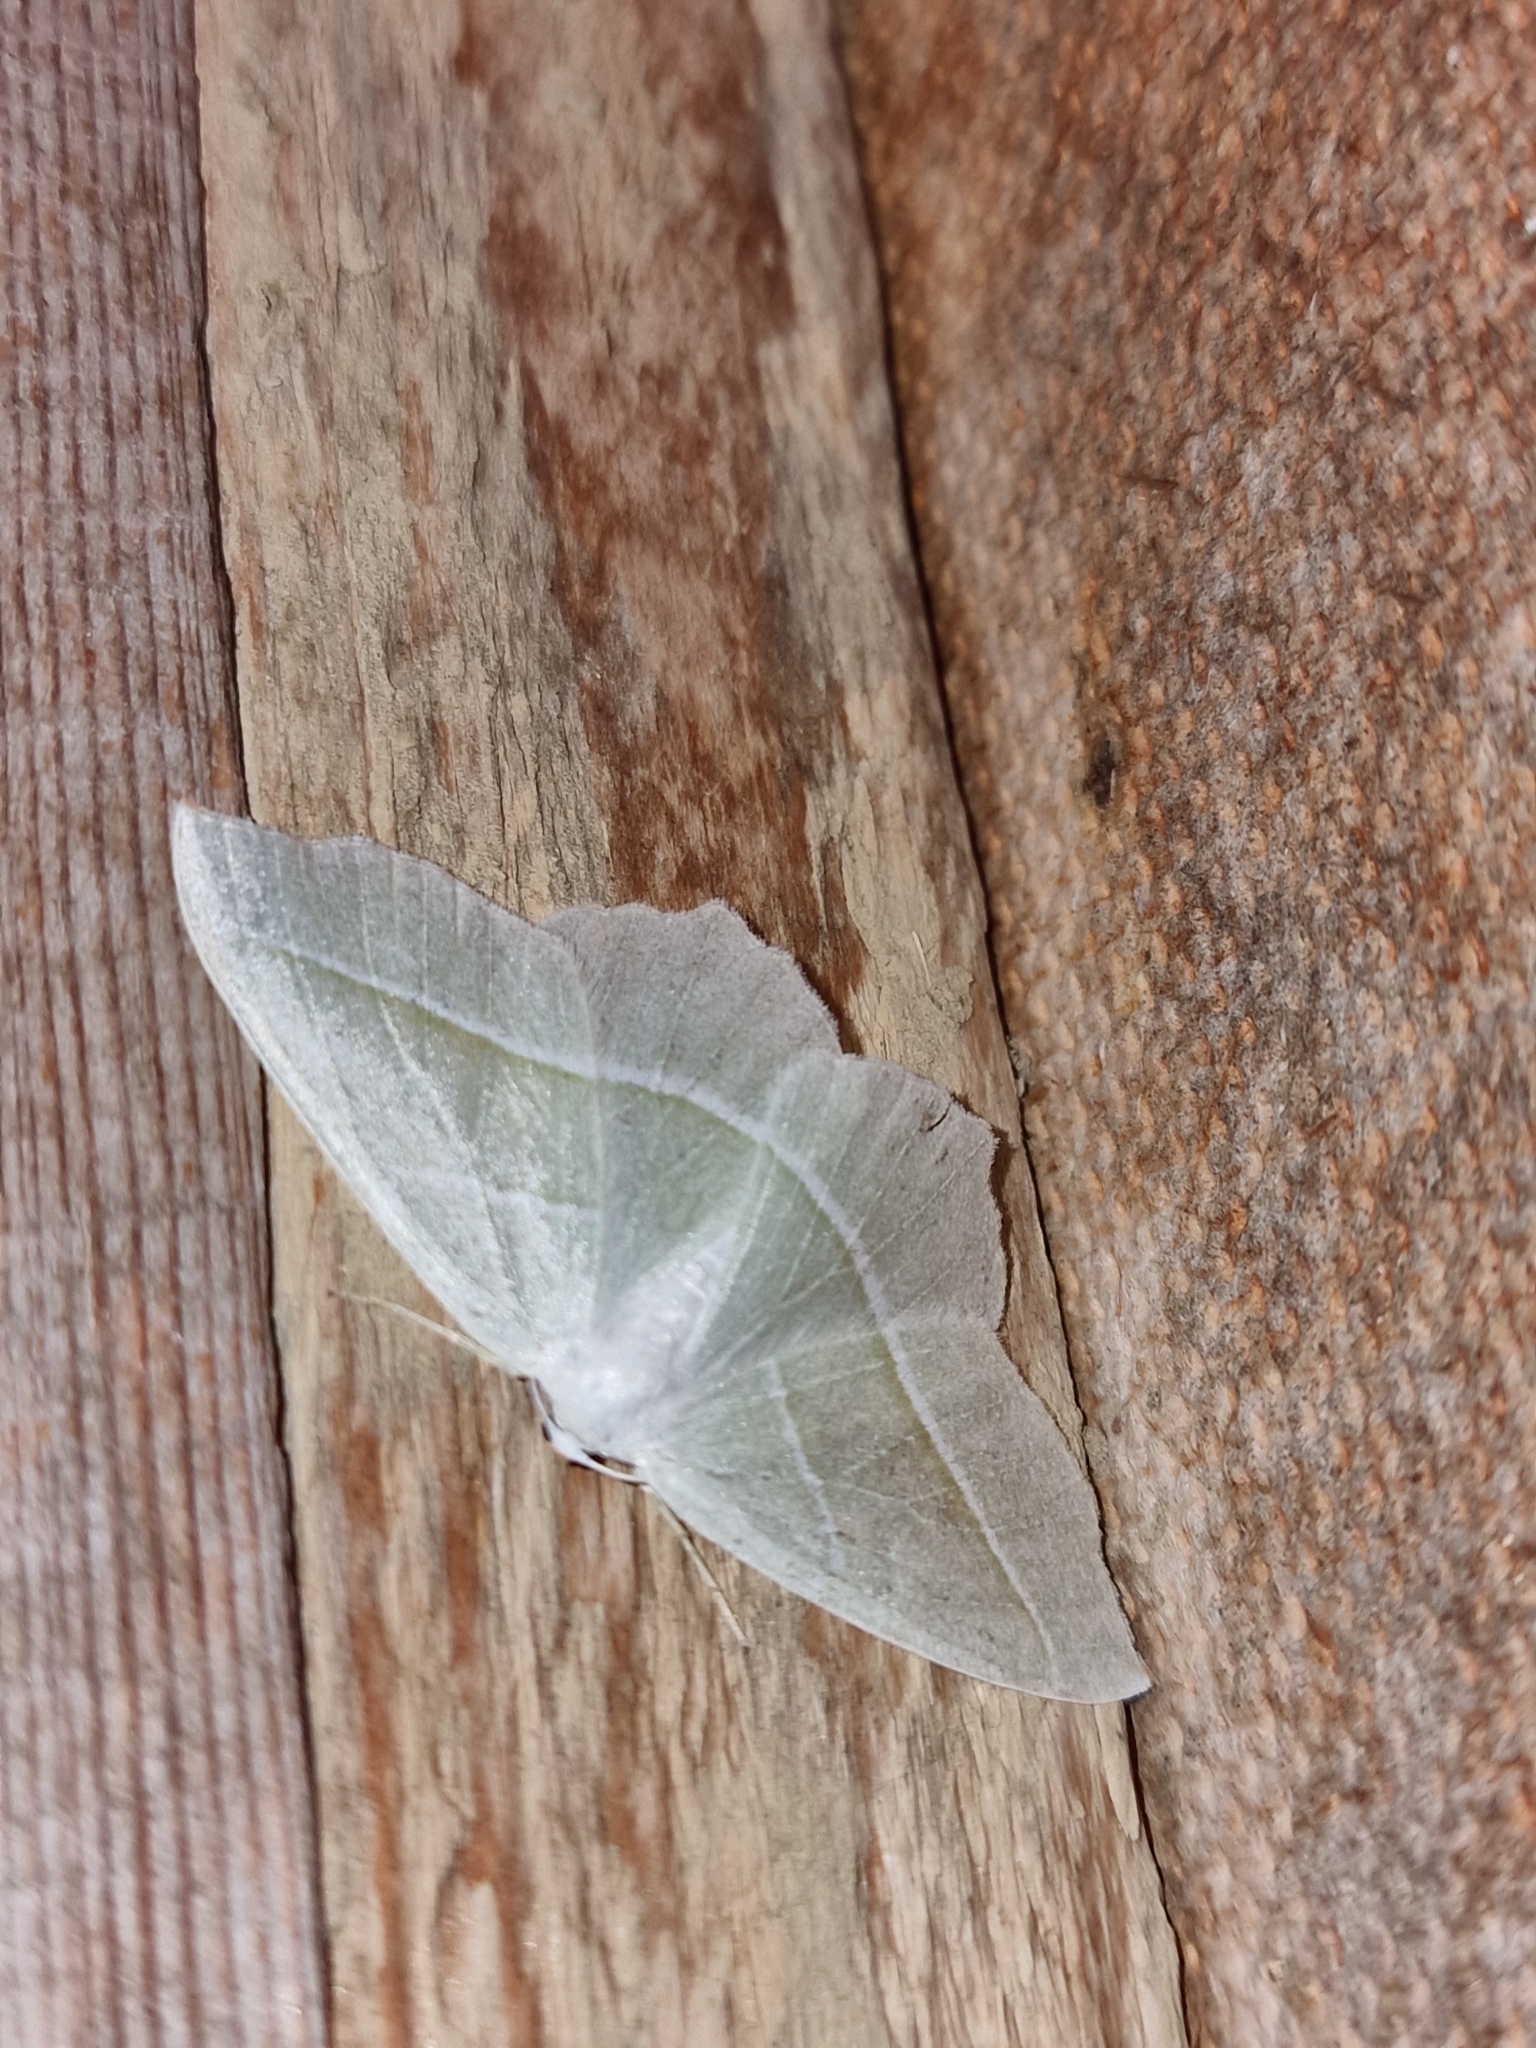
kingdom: Animalia
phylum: Arthropoda
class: Insecta
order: Lepidoptera
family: Geometridae
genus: Campaea
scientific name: Campaea margaritaria
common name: Light emerald
